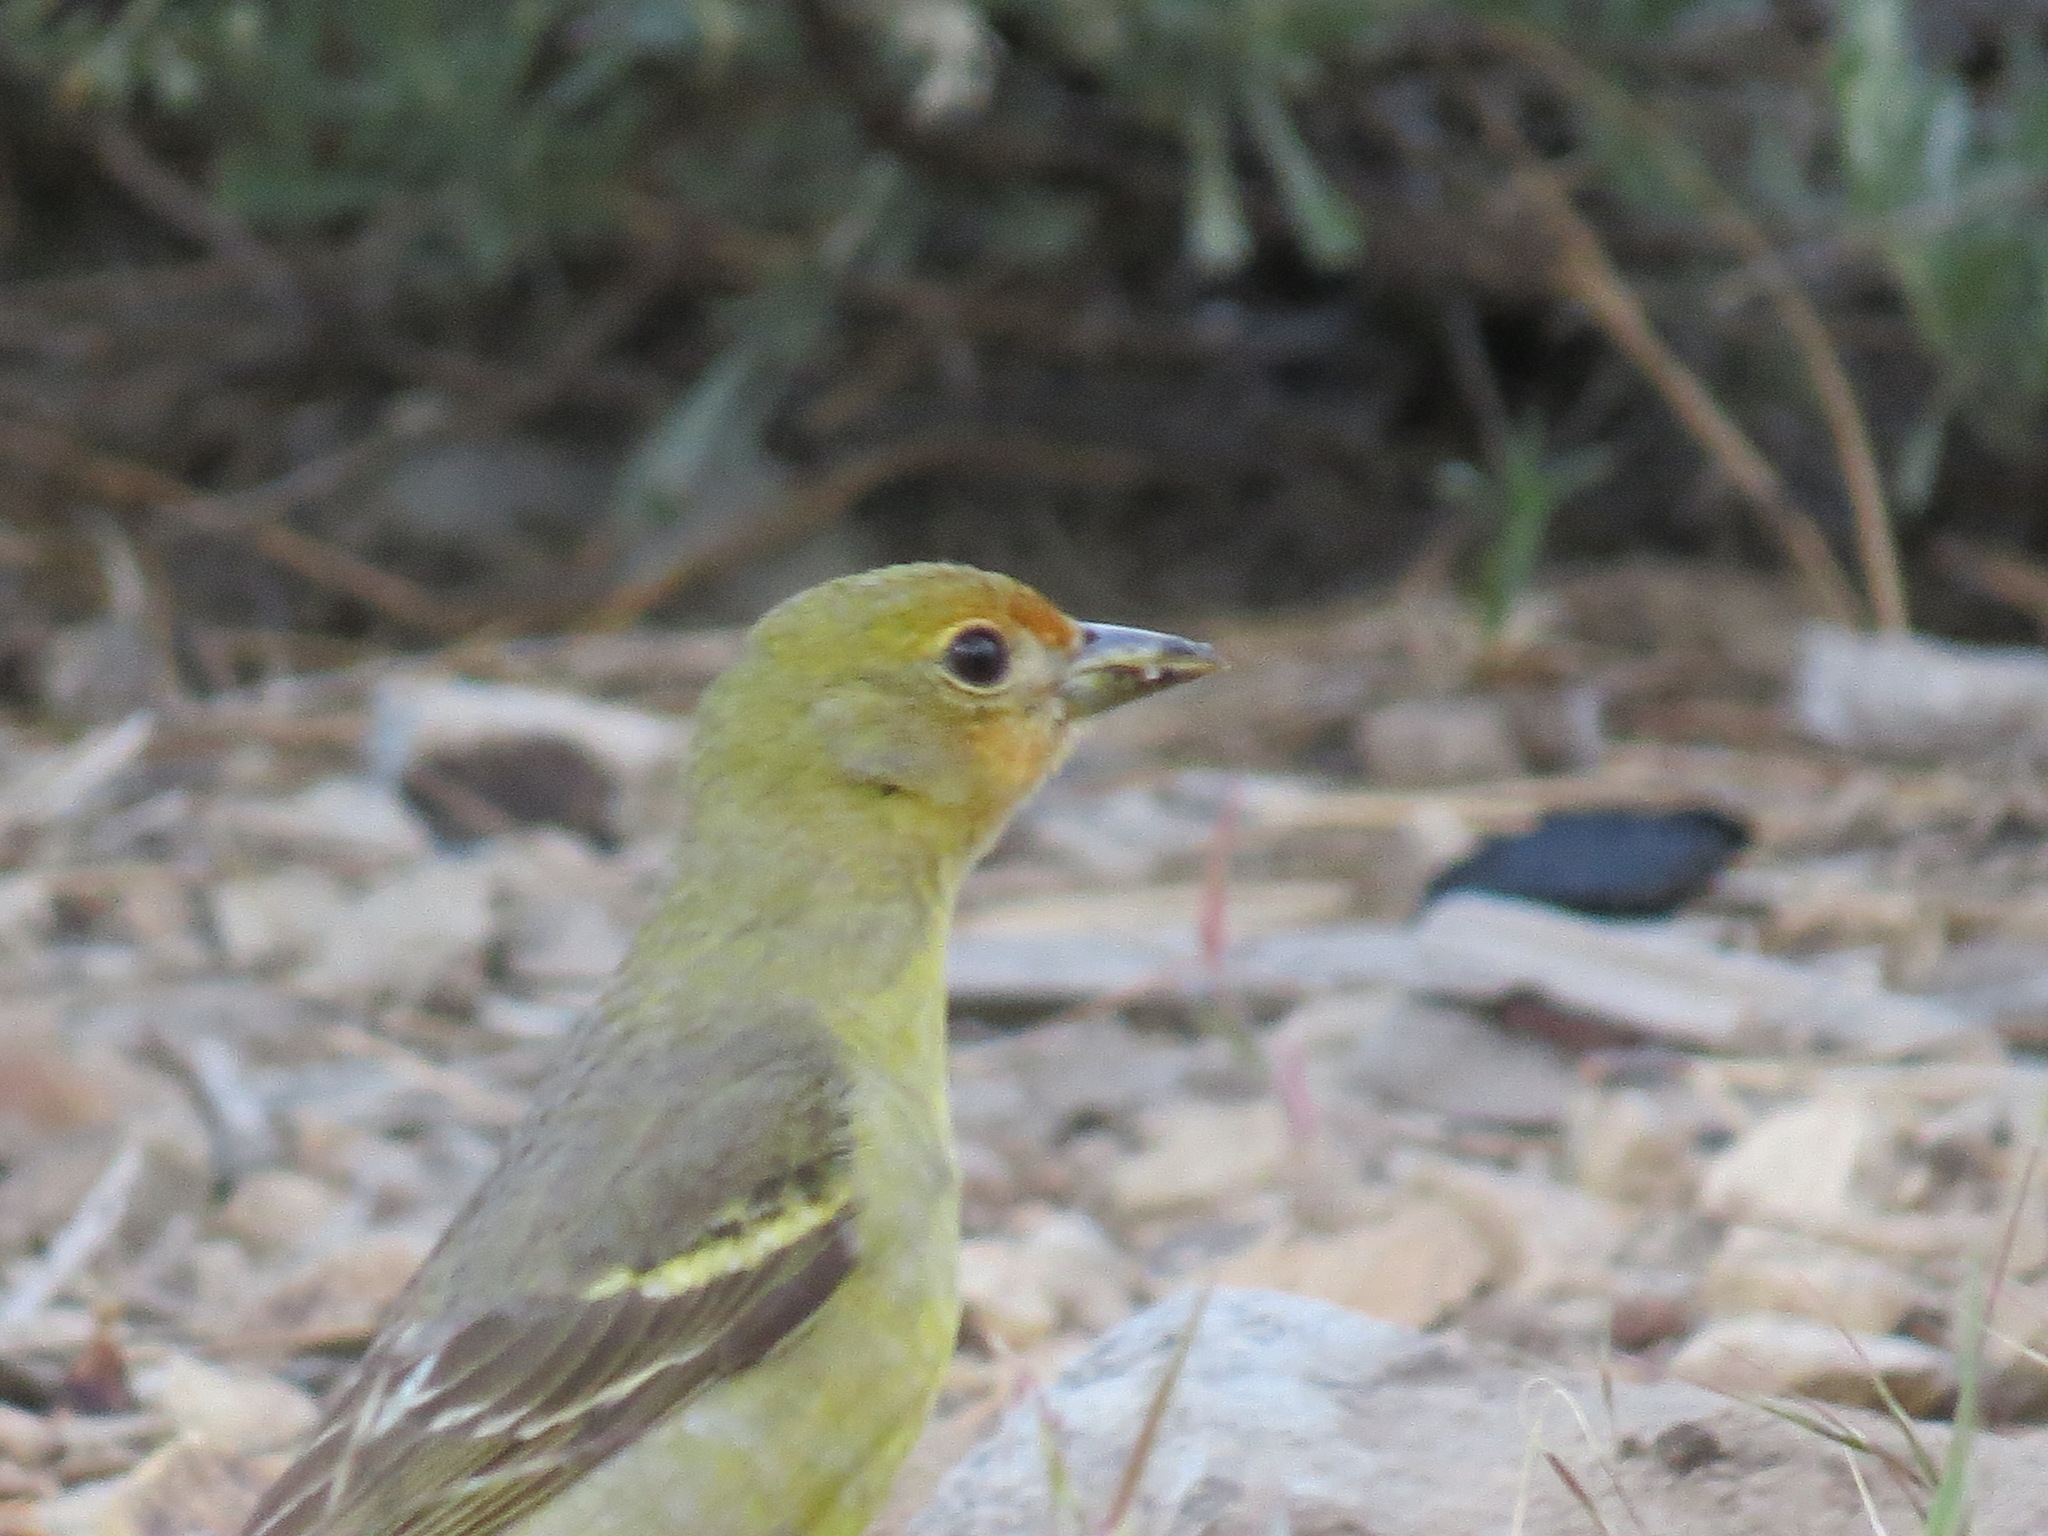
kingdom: Animalia
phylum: Chordata
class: Aves
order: Passeriformes
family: Cardinalidae
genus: Piranga
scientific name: Piranga ludoviciana
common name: Western tanager
